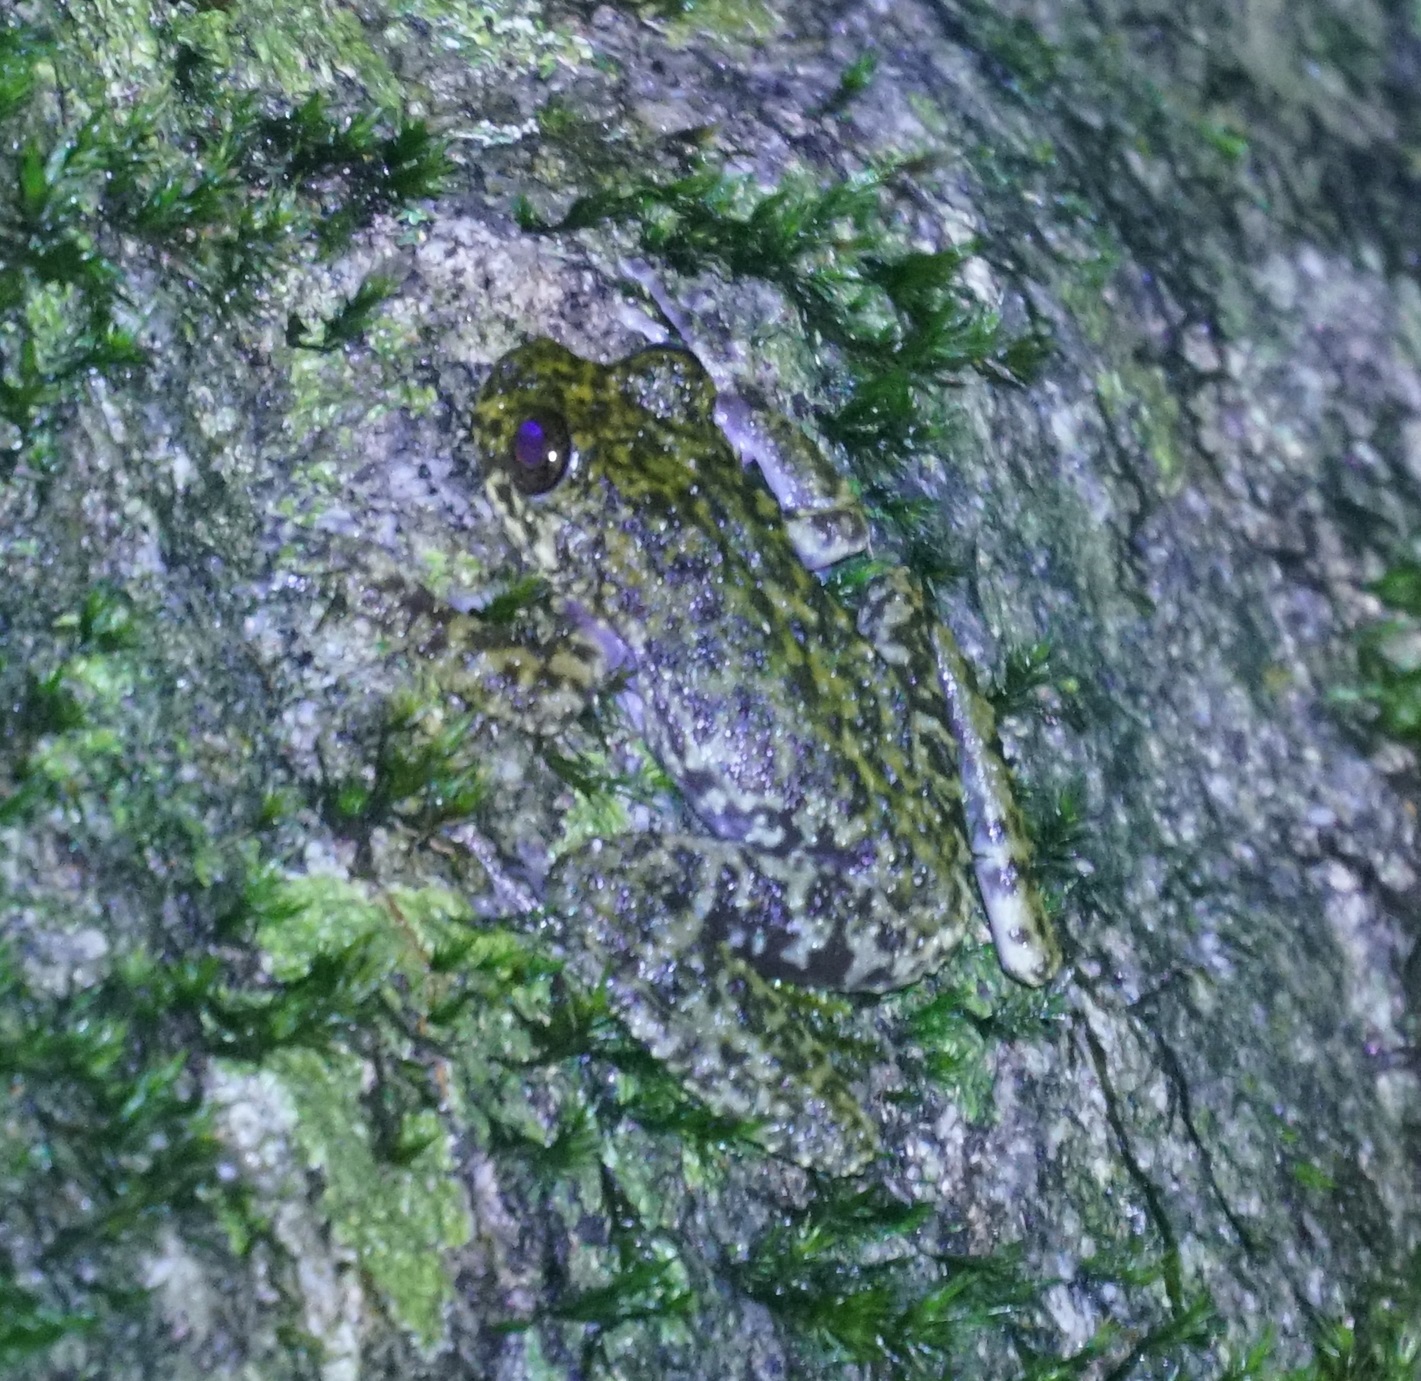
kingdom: Animalia
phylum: Chordata
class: Amphibia
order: Anura
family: Pelodryadidae
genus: Ranoidea
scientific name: Ranoidea nannotis
